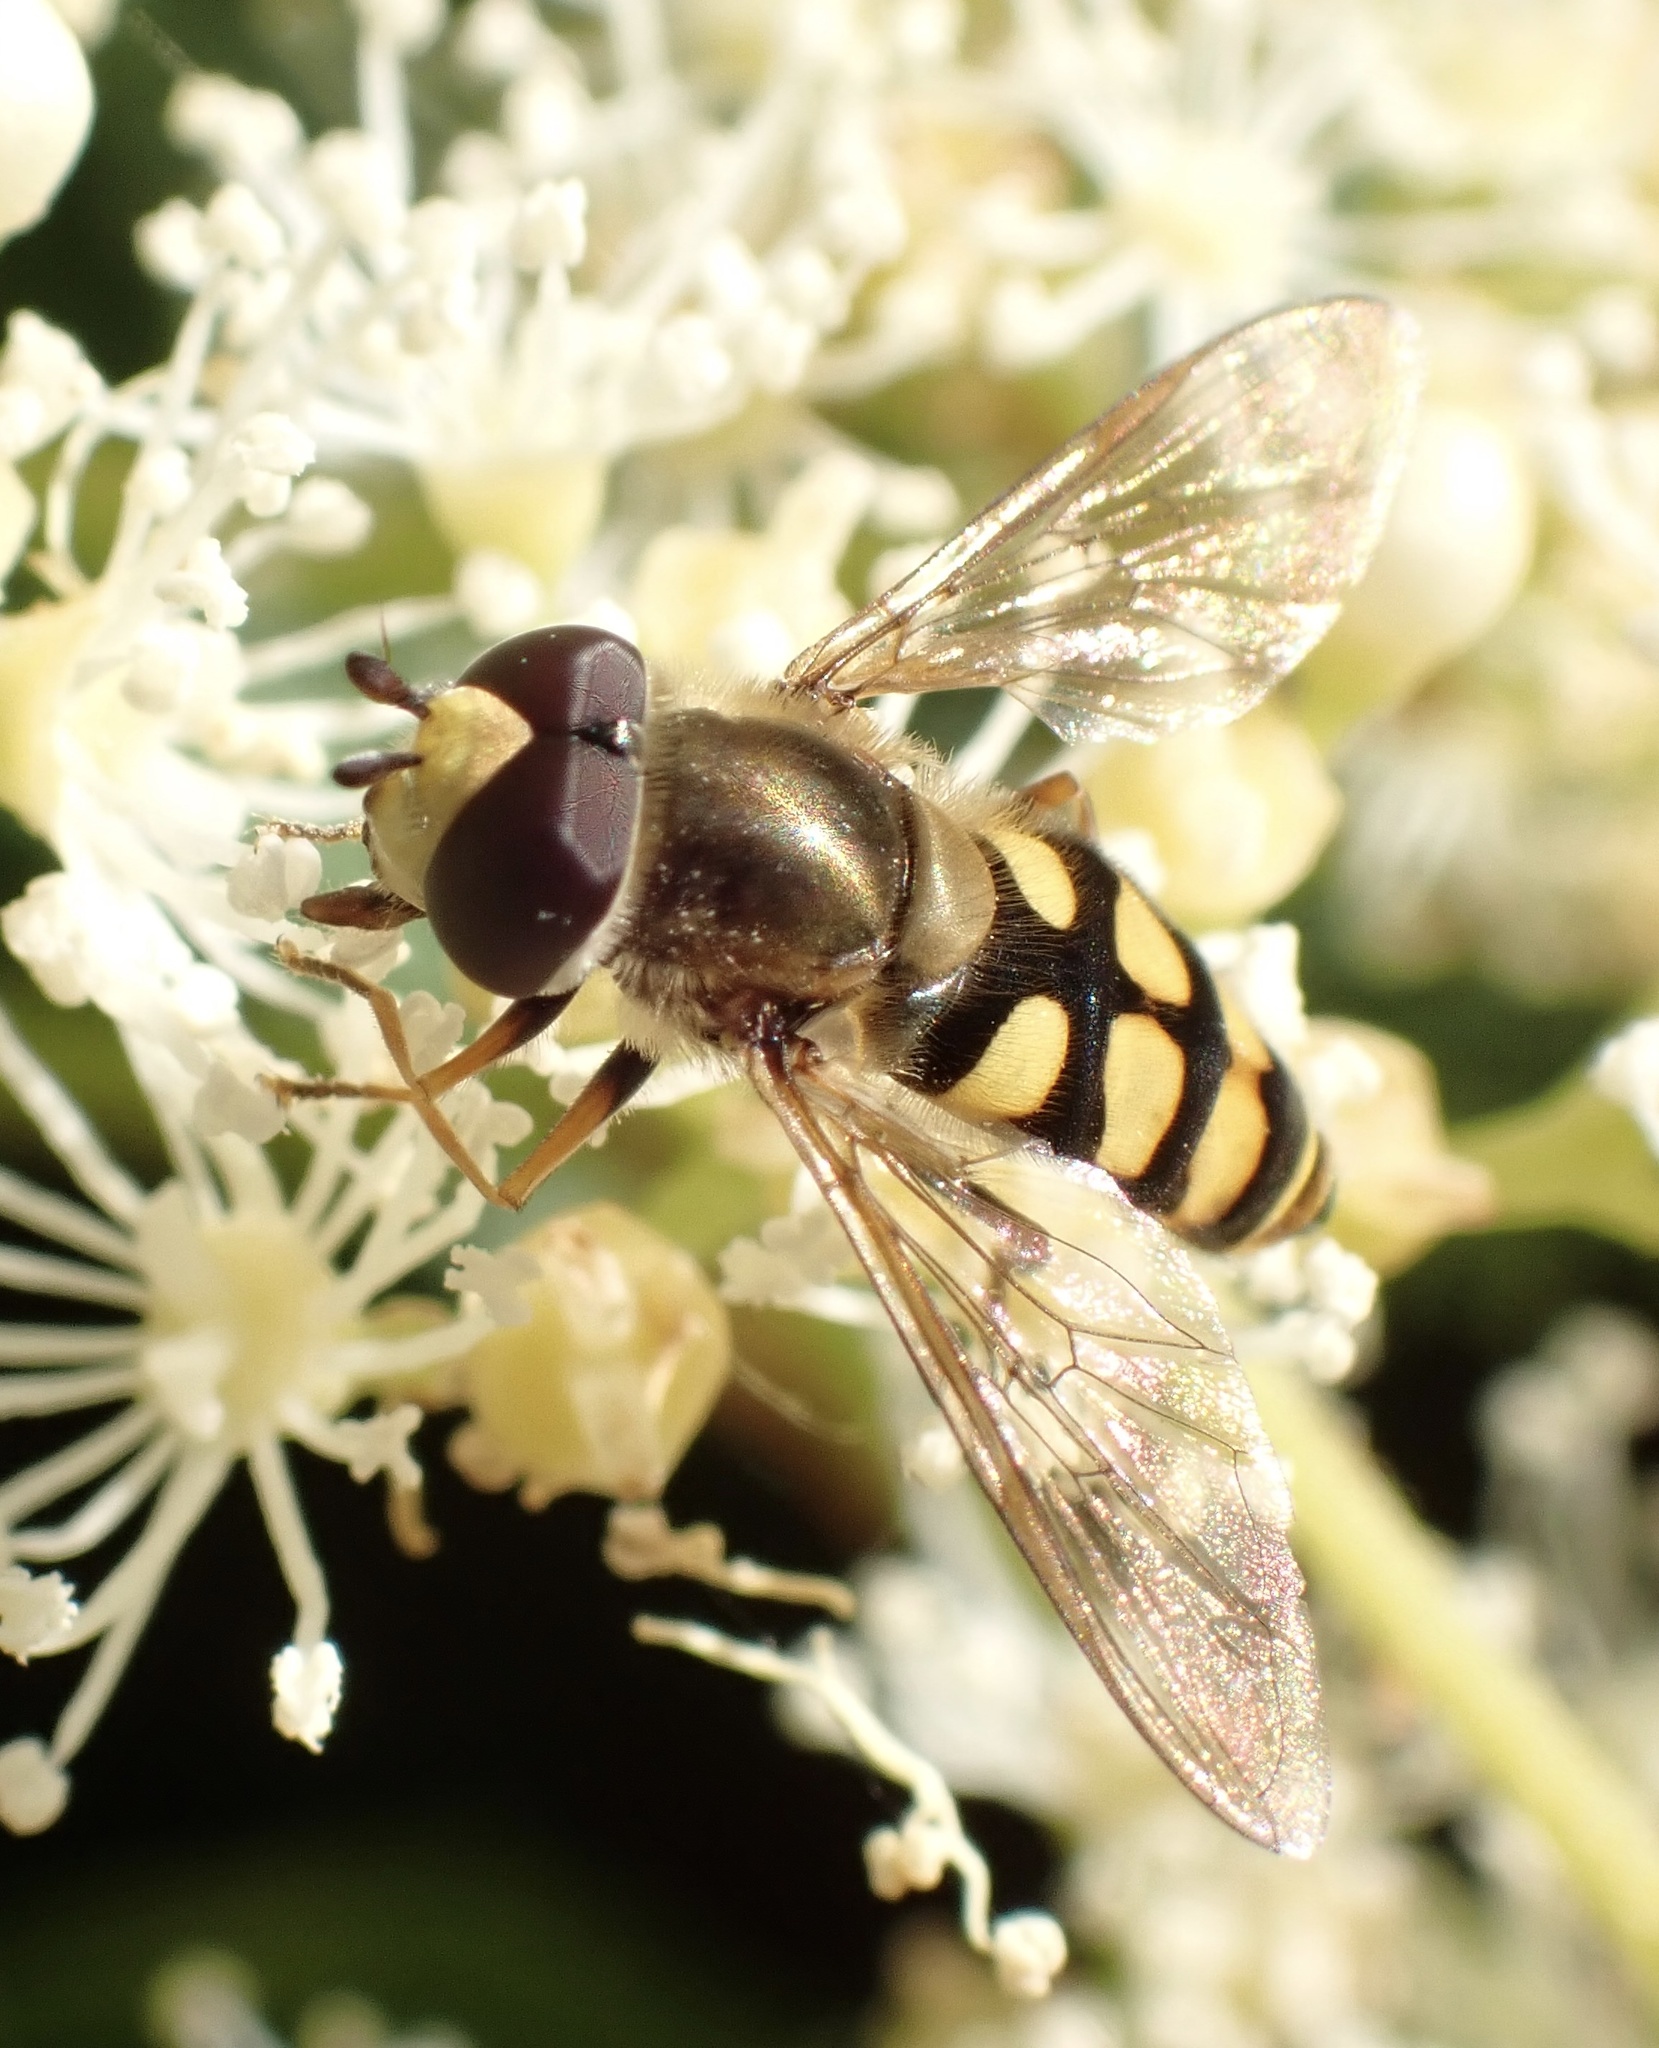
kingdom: Animalia
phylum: Arthropoda
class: Insecta
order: Diptera
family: Syrphidae
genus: Eupeodes
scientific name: Eupeodes corollae
